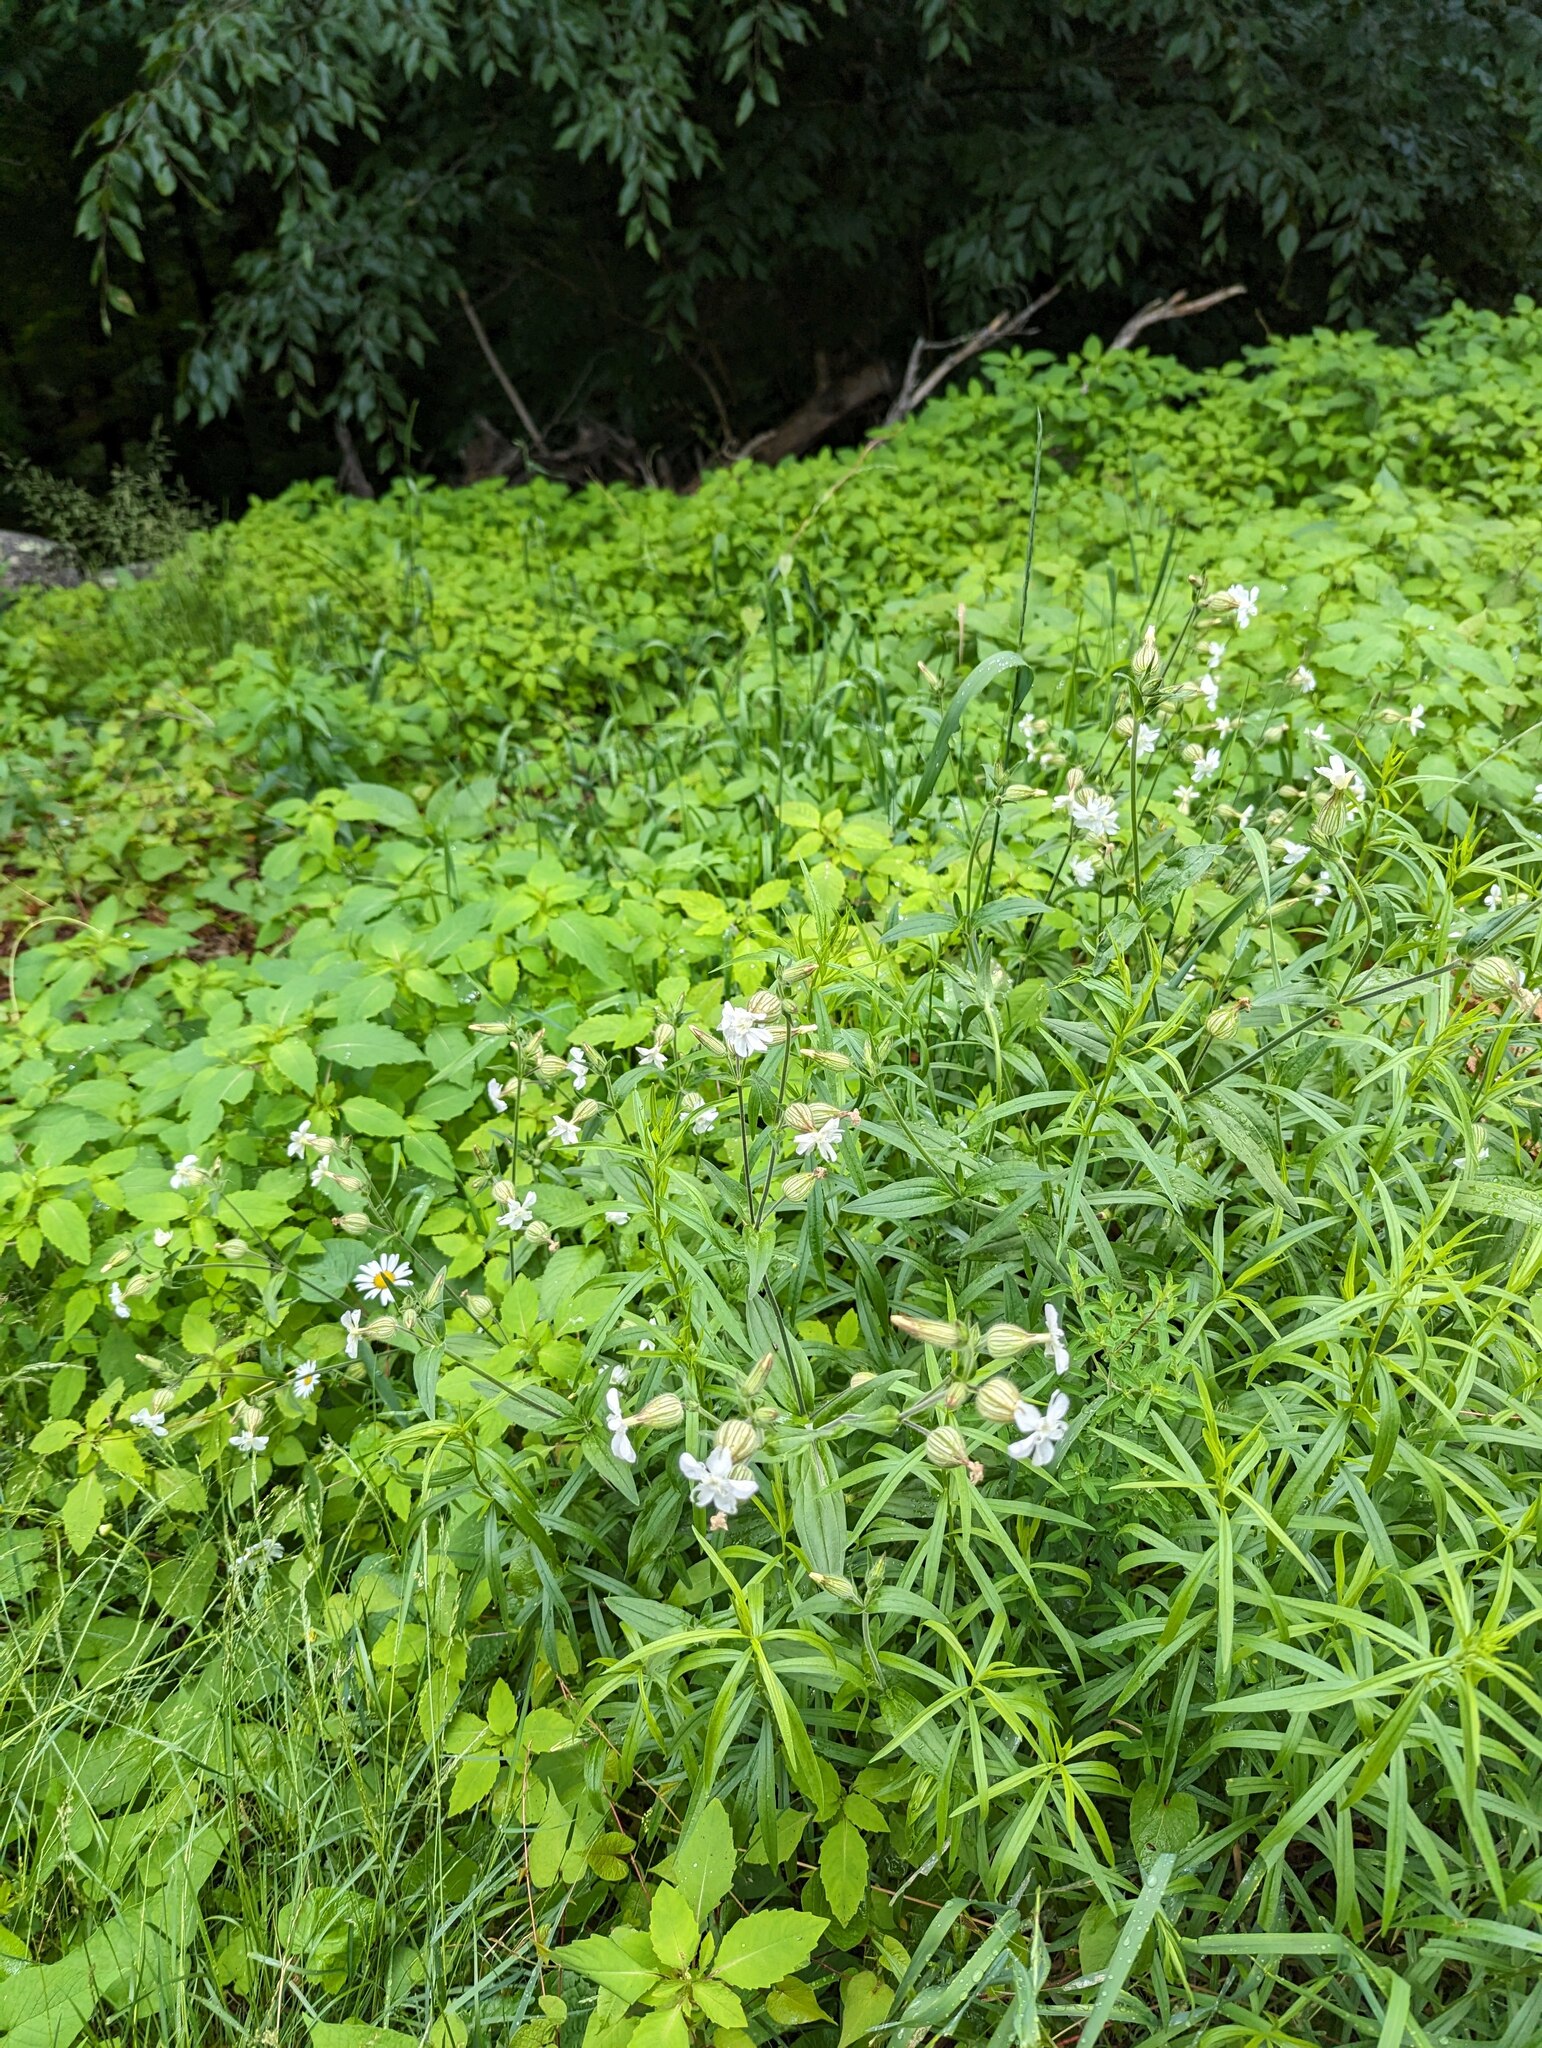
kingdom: Plantae
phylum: Tracheophyta
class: Magnoliopsida
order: Caryophyllales
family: Caryophyllaceae
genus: Silene
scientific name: Silene latifolia
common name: White campion
